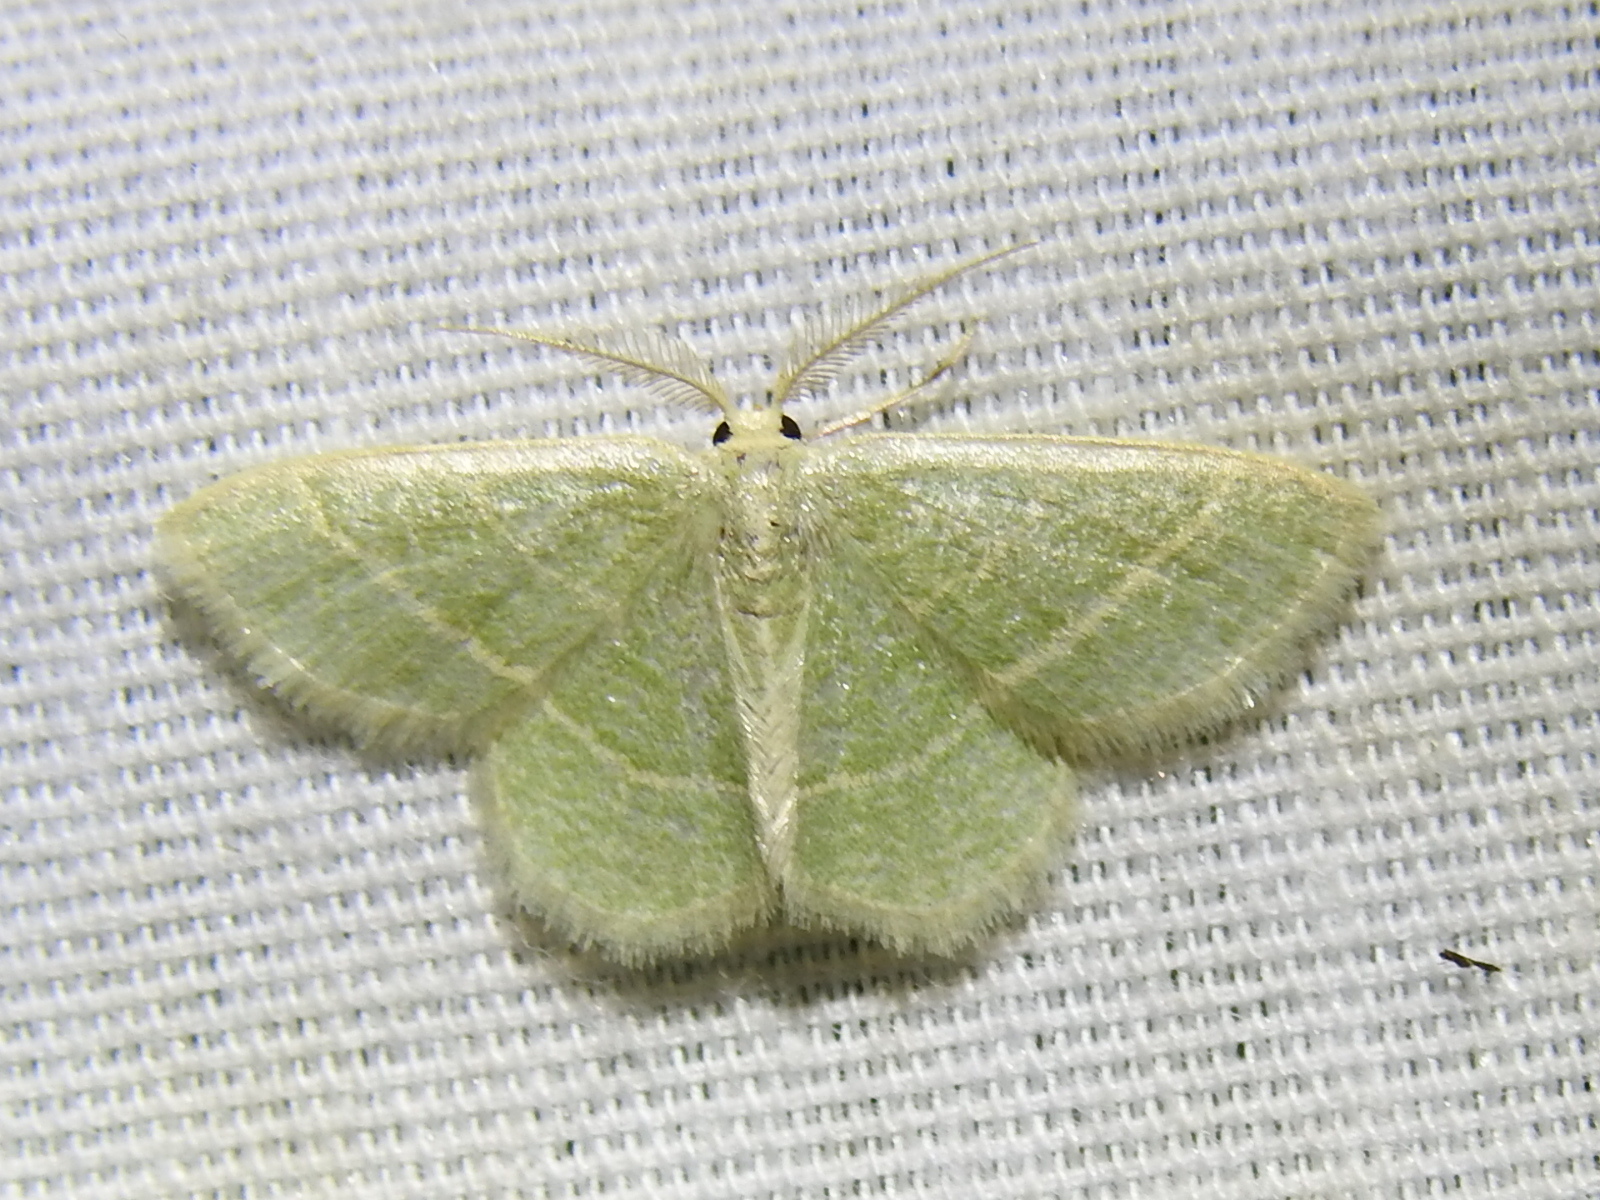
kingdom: Animalia
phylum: Arthropoda
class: Insecta
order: Lepidoptera
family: Geometridae
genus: Chlorochlamys
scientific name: Chlorochlamys chloroleucaria
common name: Blackberry looper
